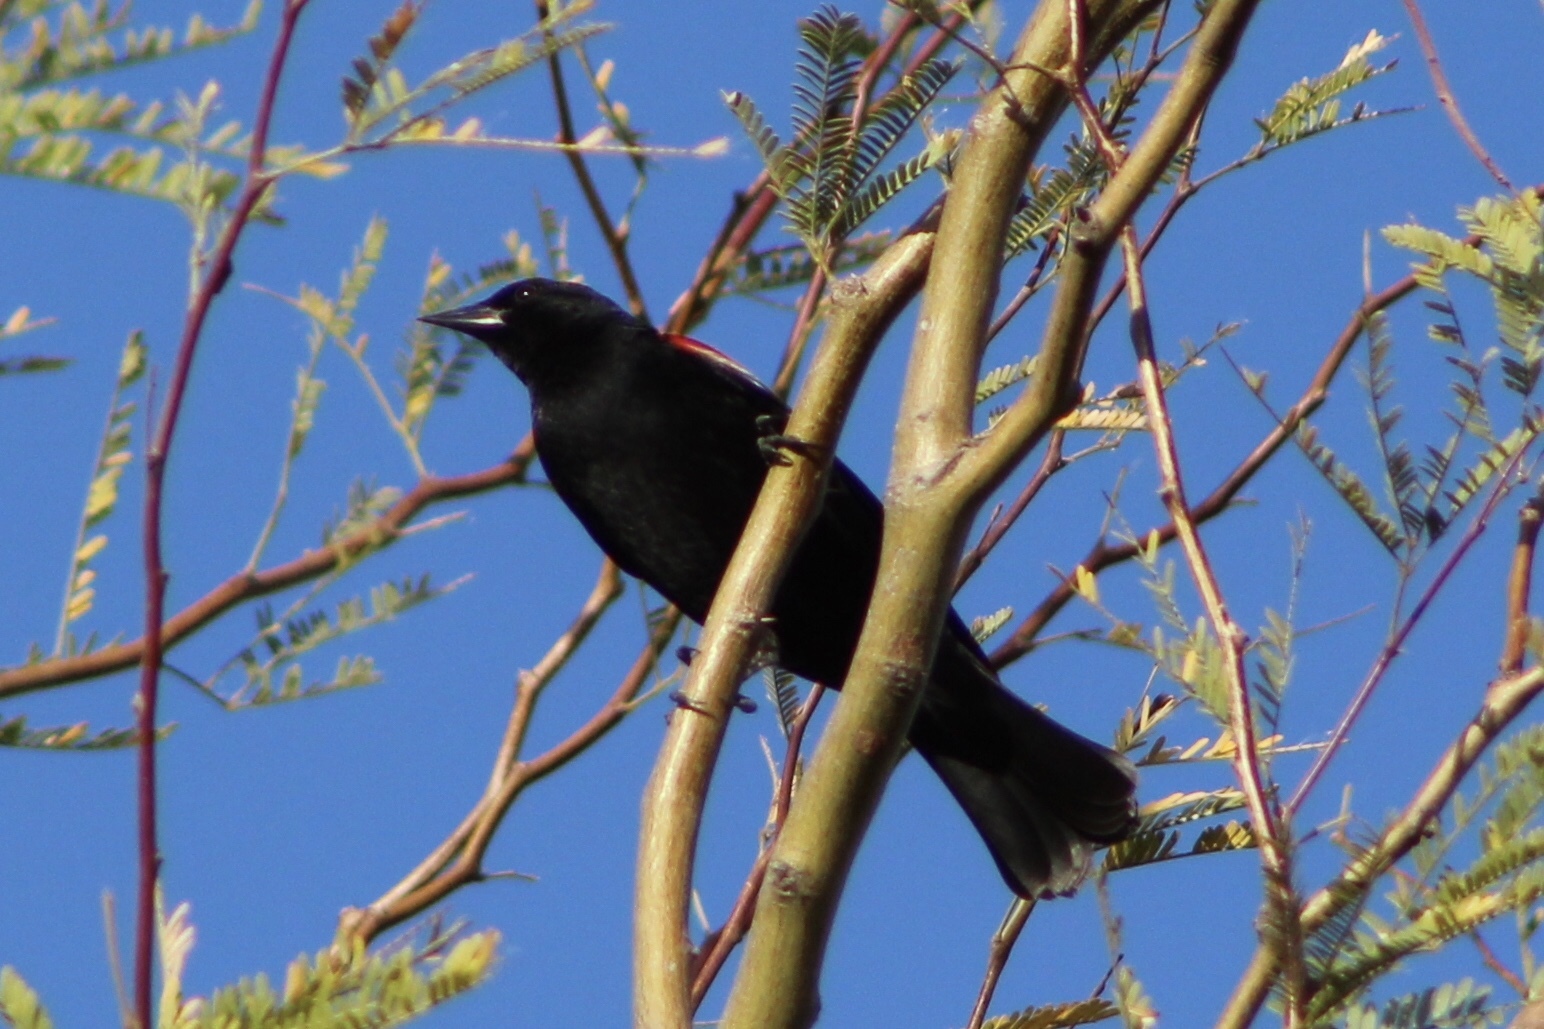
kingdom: Animalia
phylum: Chordata
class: Aves
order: Passeriformes
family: Icteridae
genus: Agelaius
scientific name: Agelaius phoeniceus
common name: Red-winged blackbird
